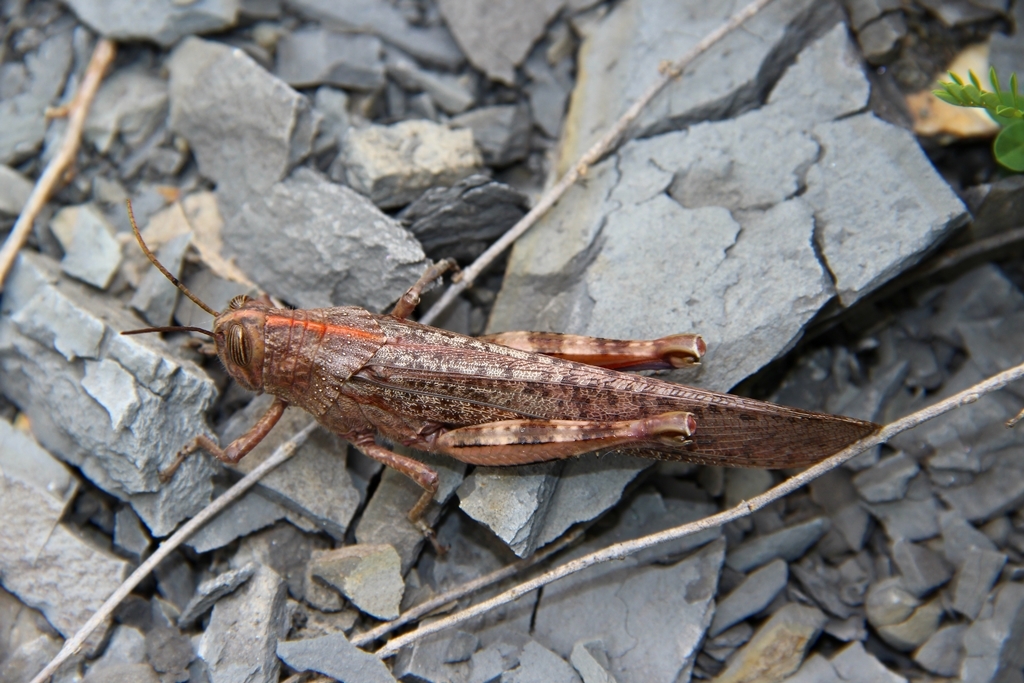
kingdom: Animalia
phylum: Arthropoda
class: Insecta
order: Orthoptera
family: Acrididae
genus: Anacridium
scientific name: Anacridium aegyptium
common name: Egyptian grasshopper
